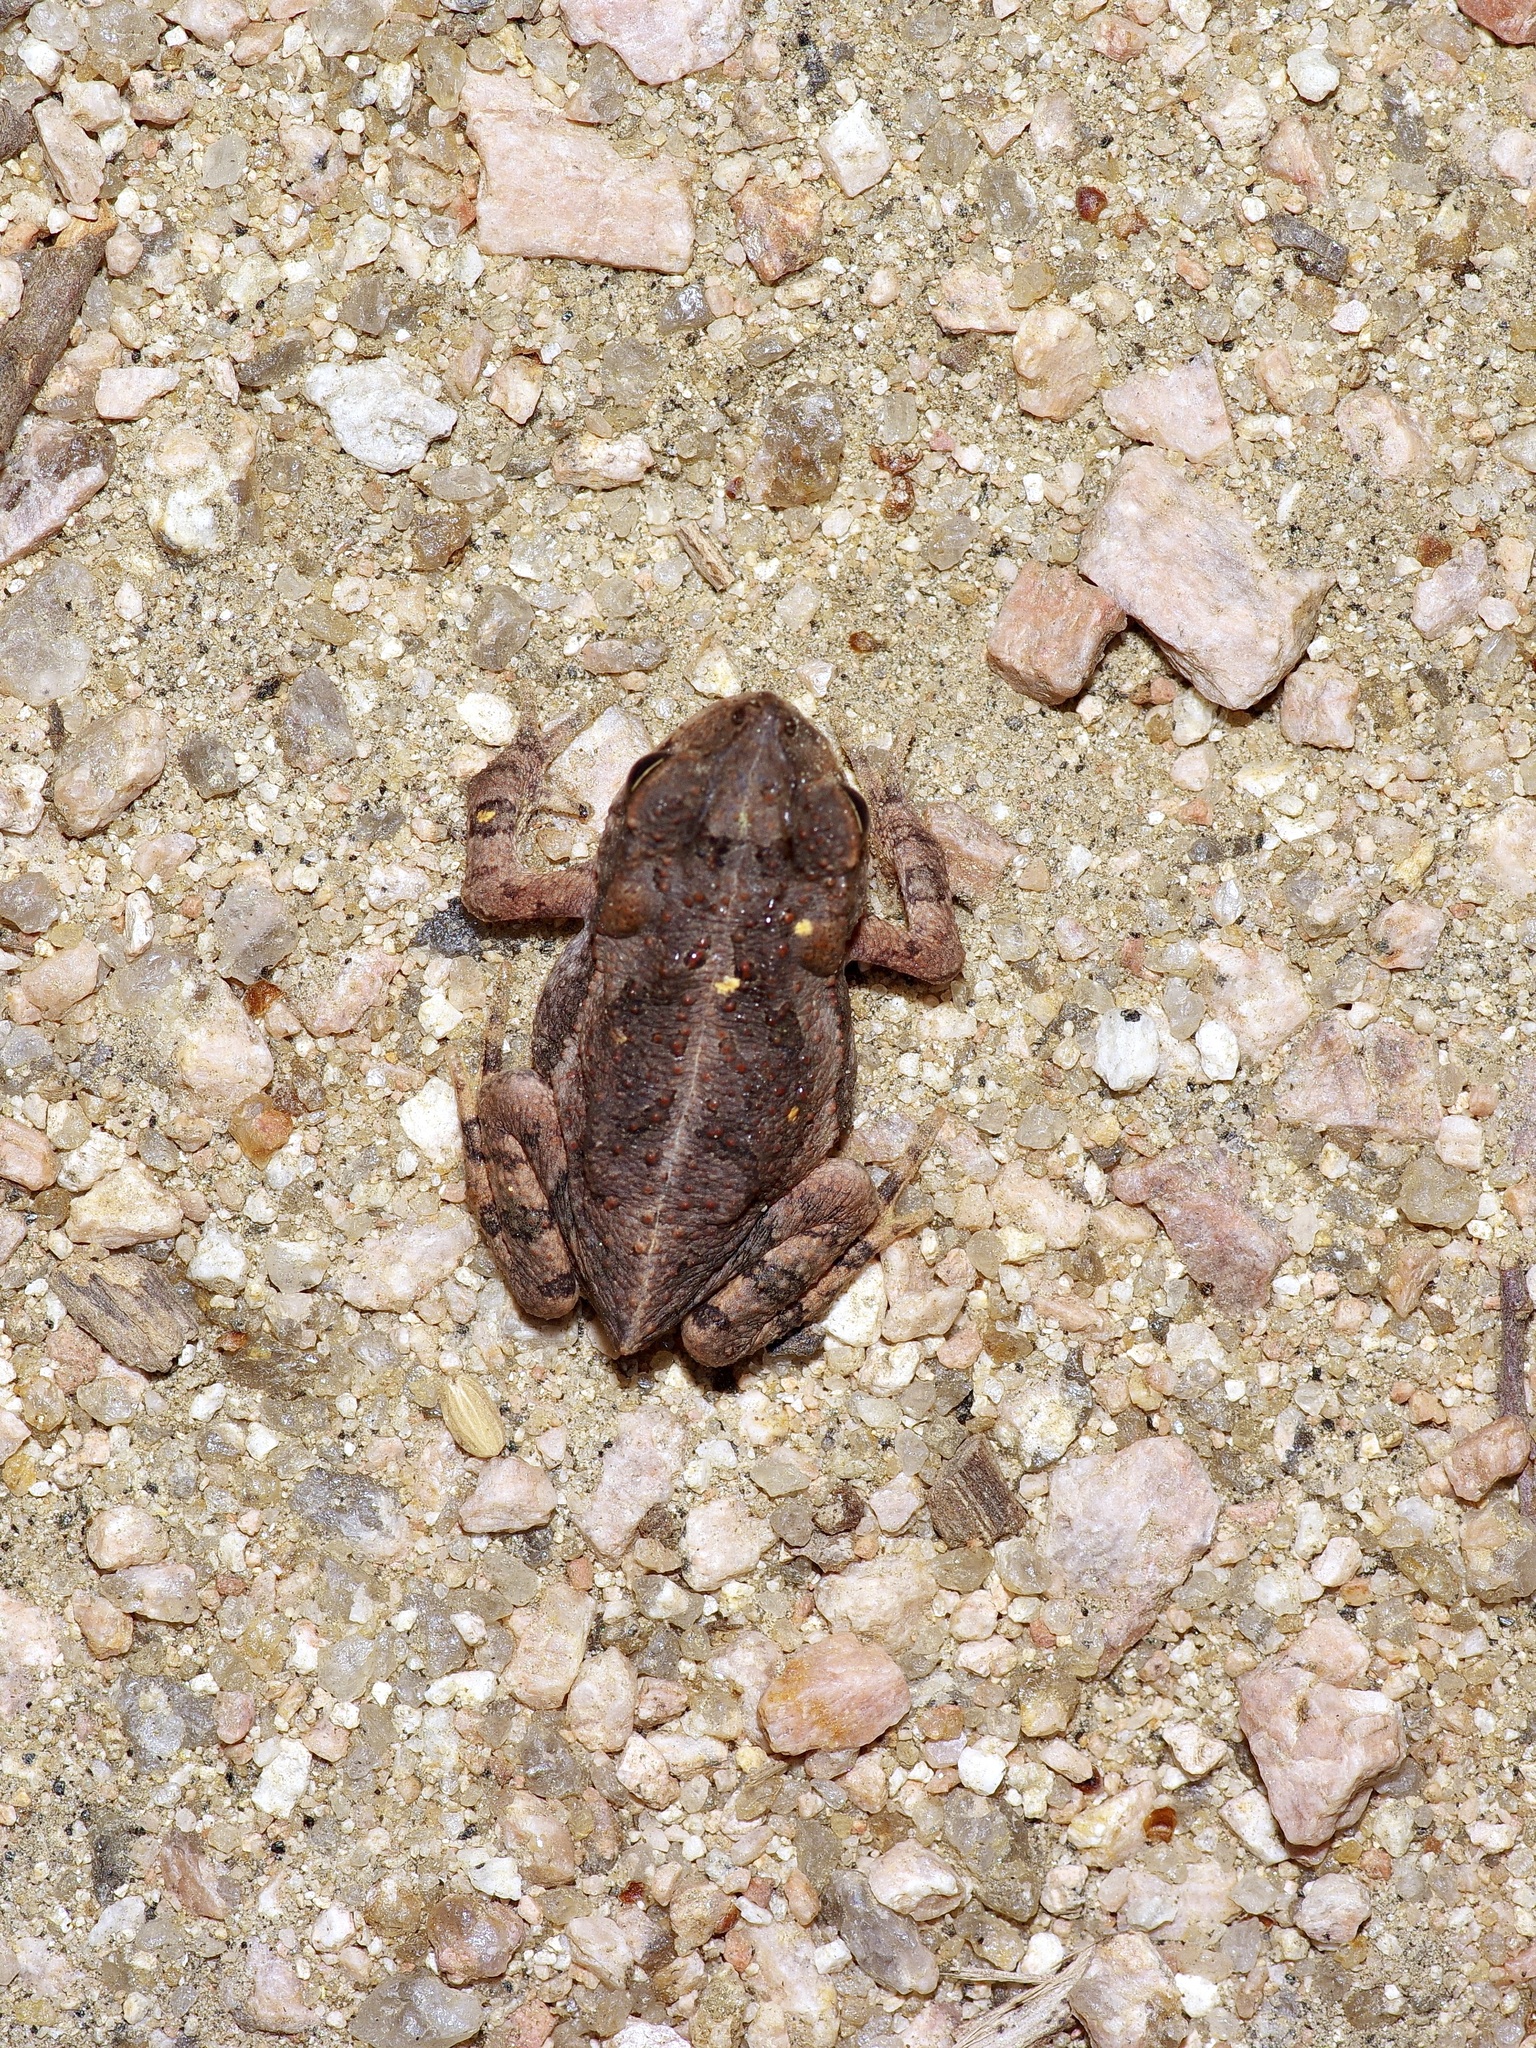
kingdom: Animalia
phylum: Chordata
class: Amphibia
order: Anura
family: Bufonidae
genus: Incilius
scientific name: Incilius nebulifer
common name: Gulf coast toad
